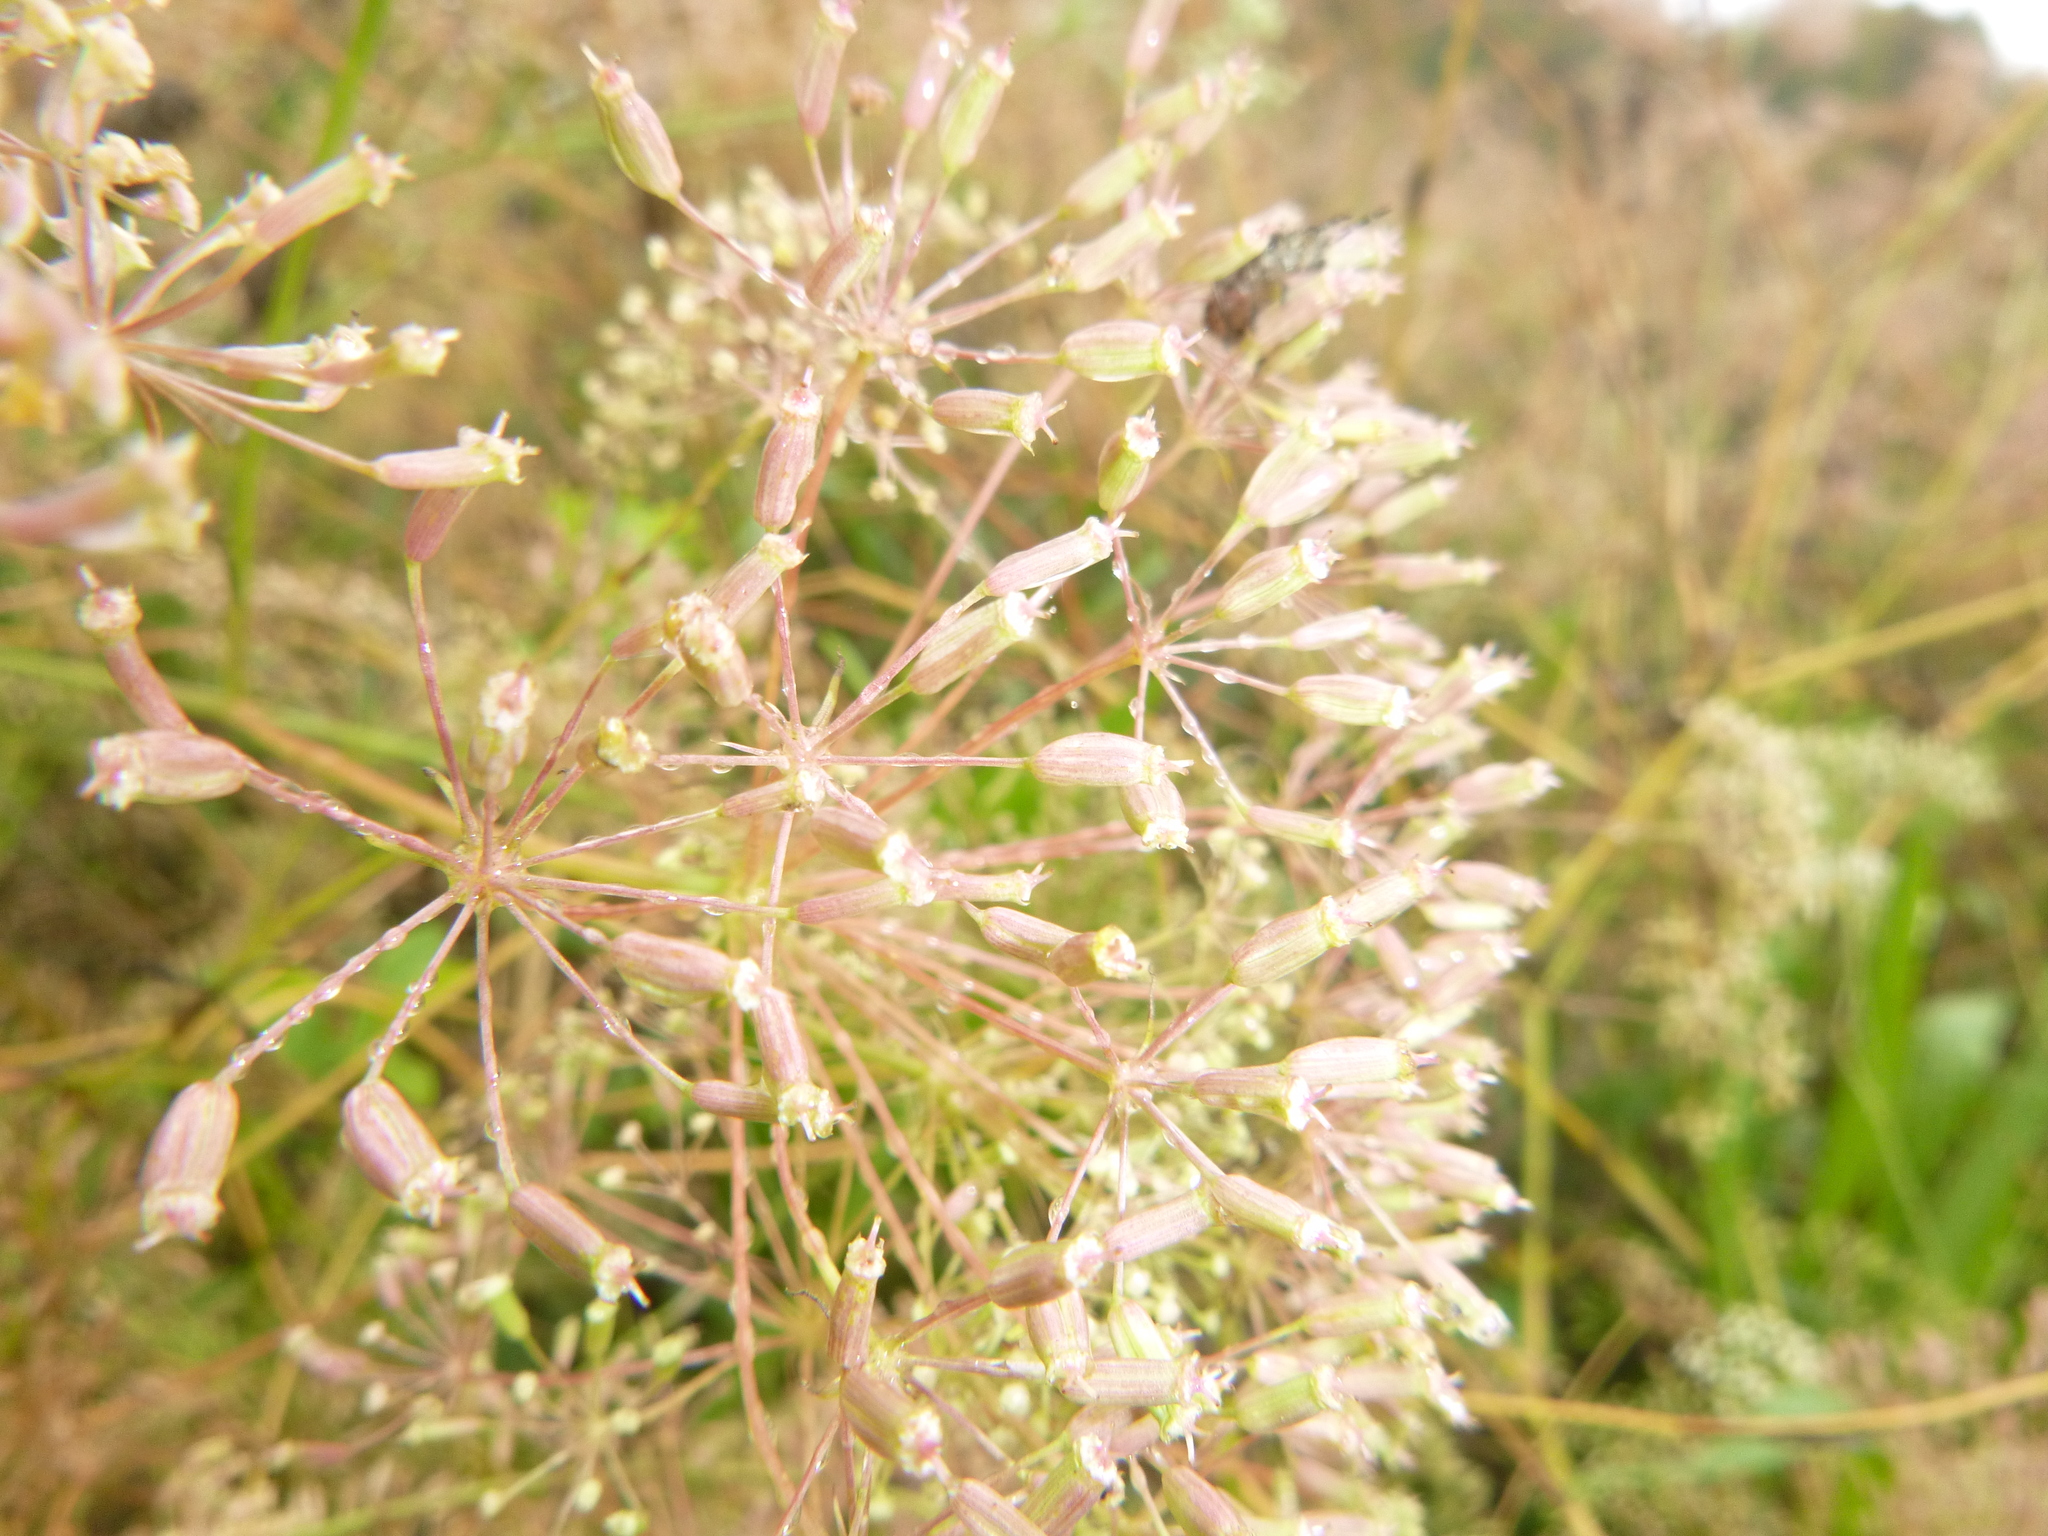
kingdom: Plantae
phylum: Tracheophyta
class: Magnoliopsida
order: Apiales
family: Apiaceae
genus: Falcaria
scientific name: Falcaria vulgaris
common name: Longleaf
